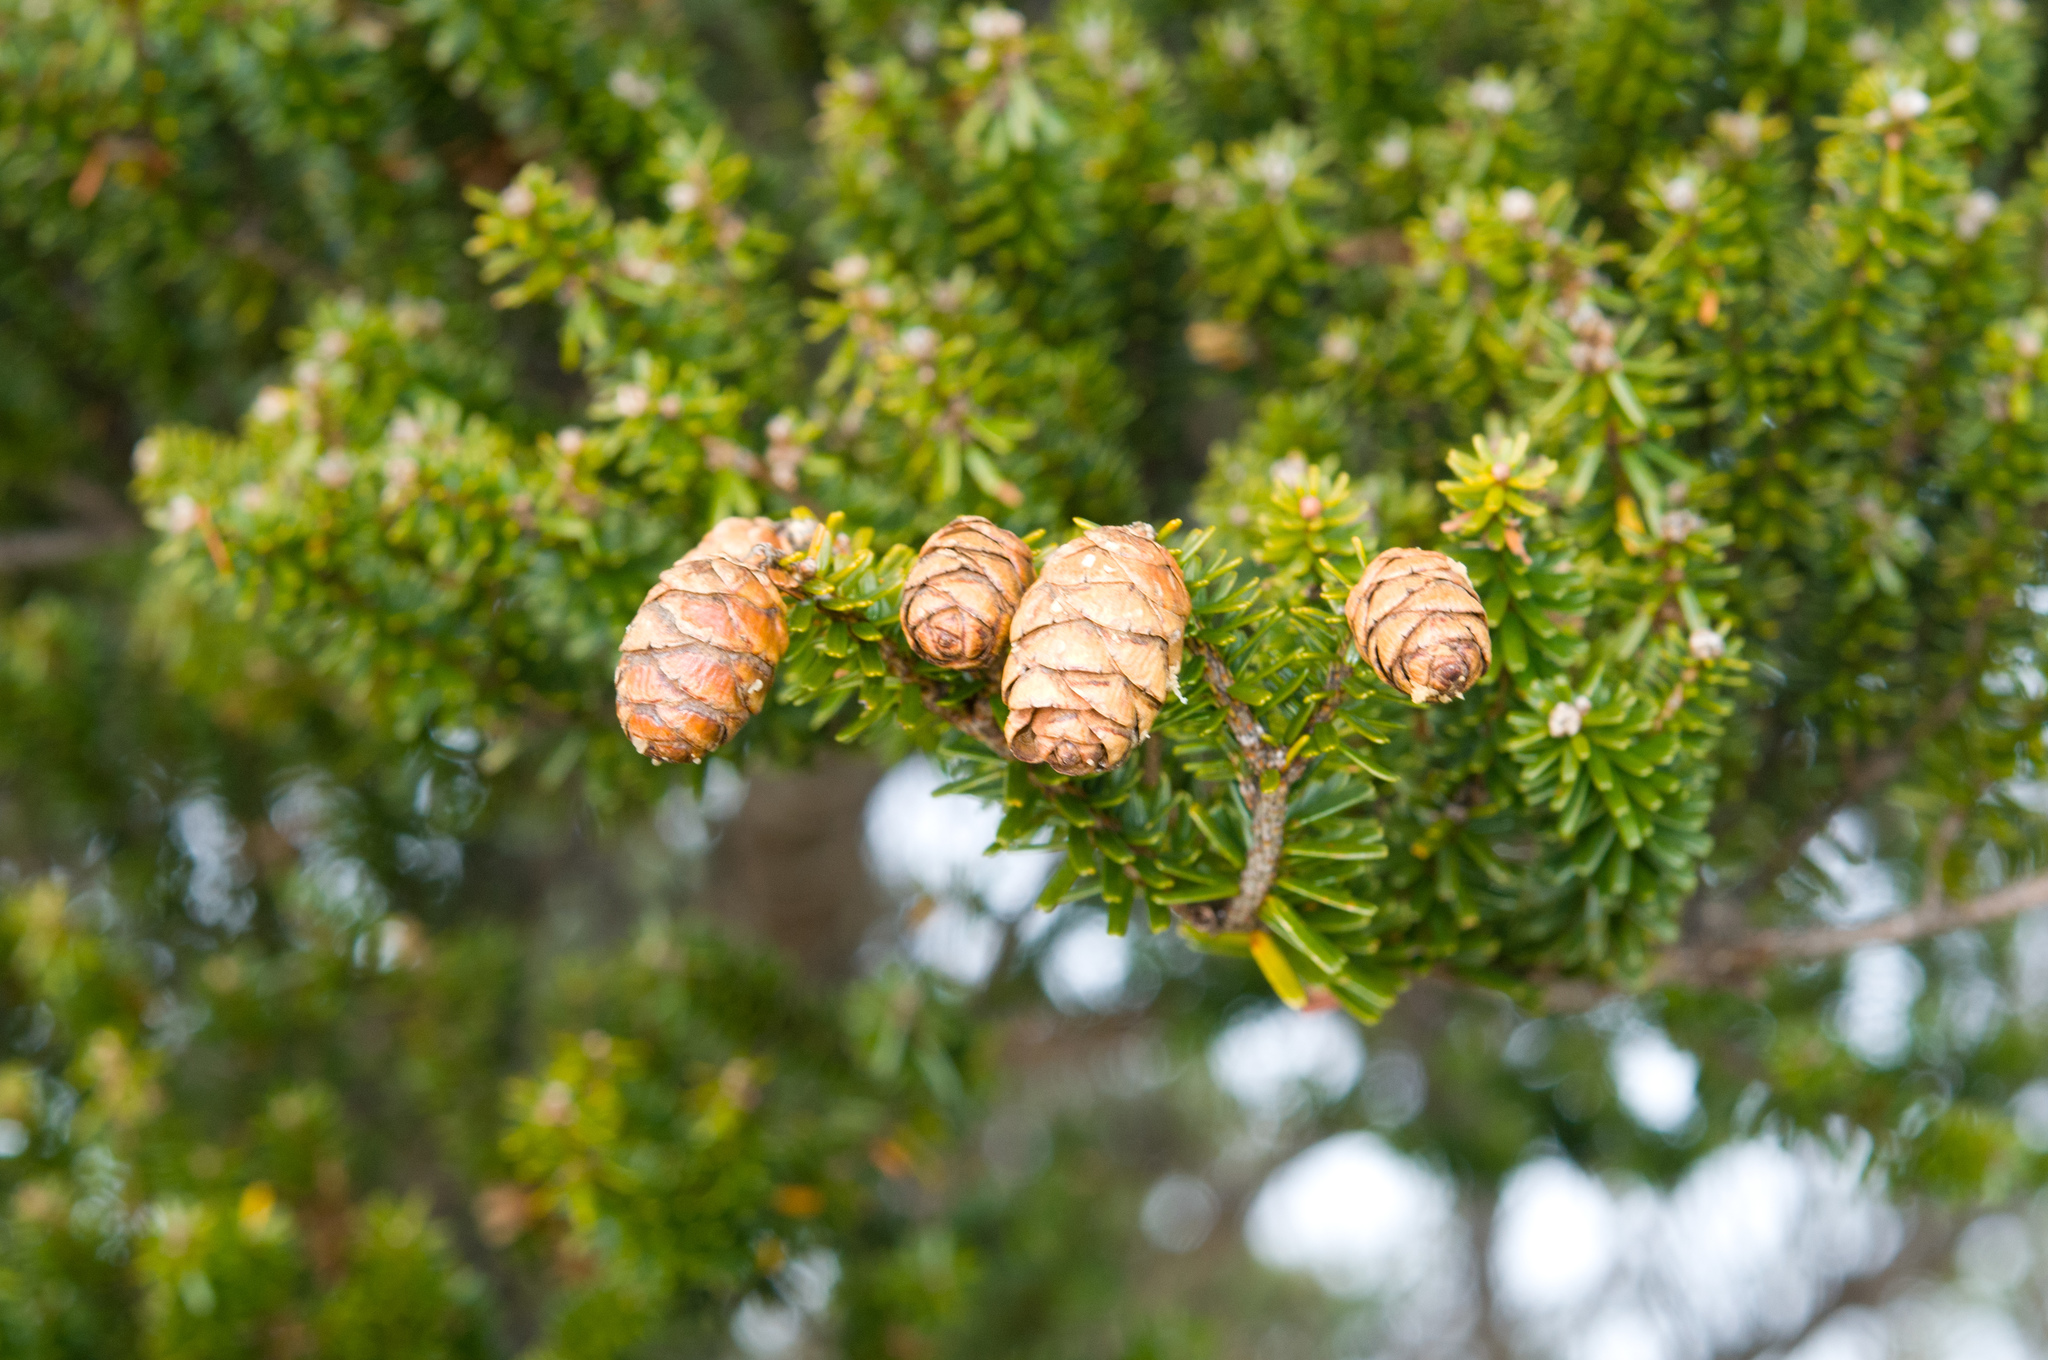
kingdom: Plantae
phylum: Tracheophyta
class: Pinopsida
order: Pinales
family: Pinaceae
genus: Tsuga
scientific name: Tsuga chinensis
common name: Chinese hemlock
